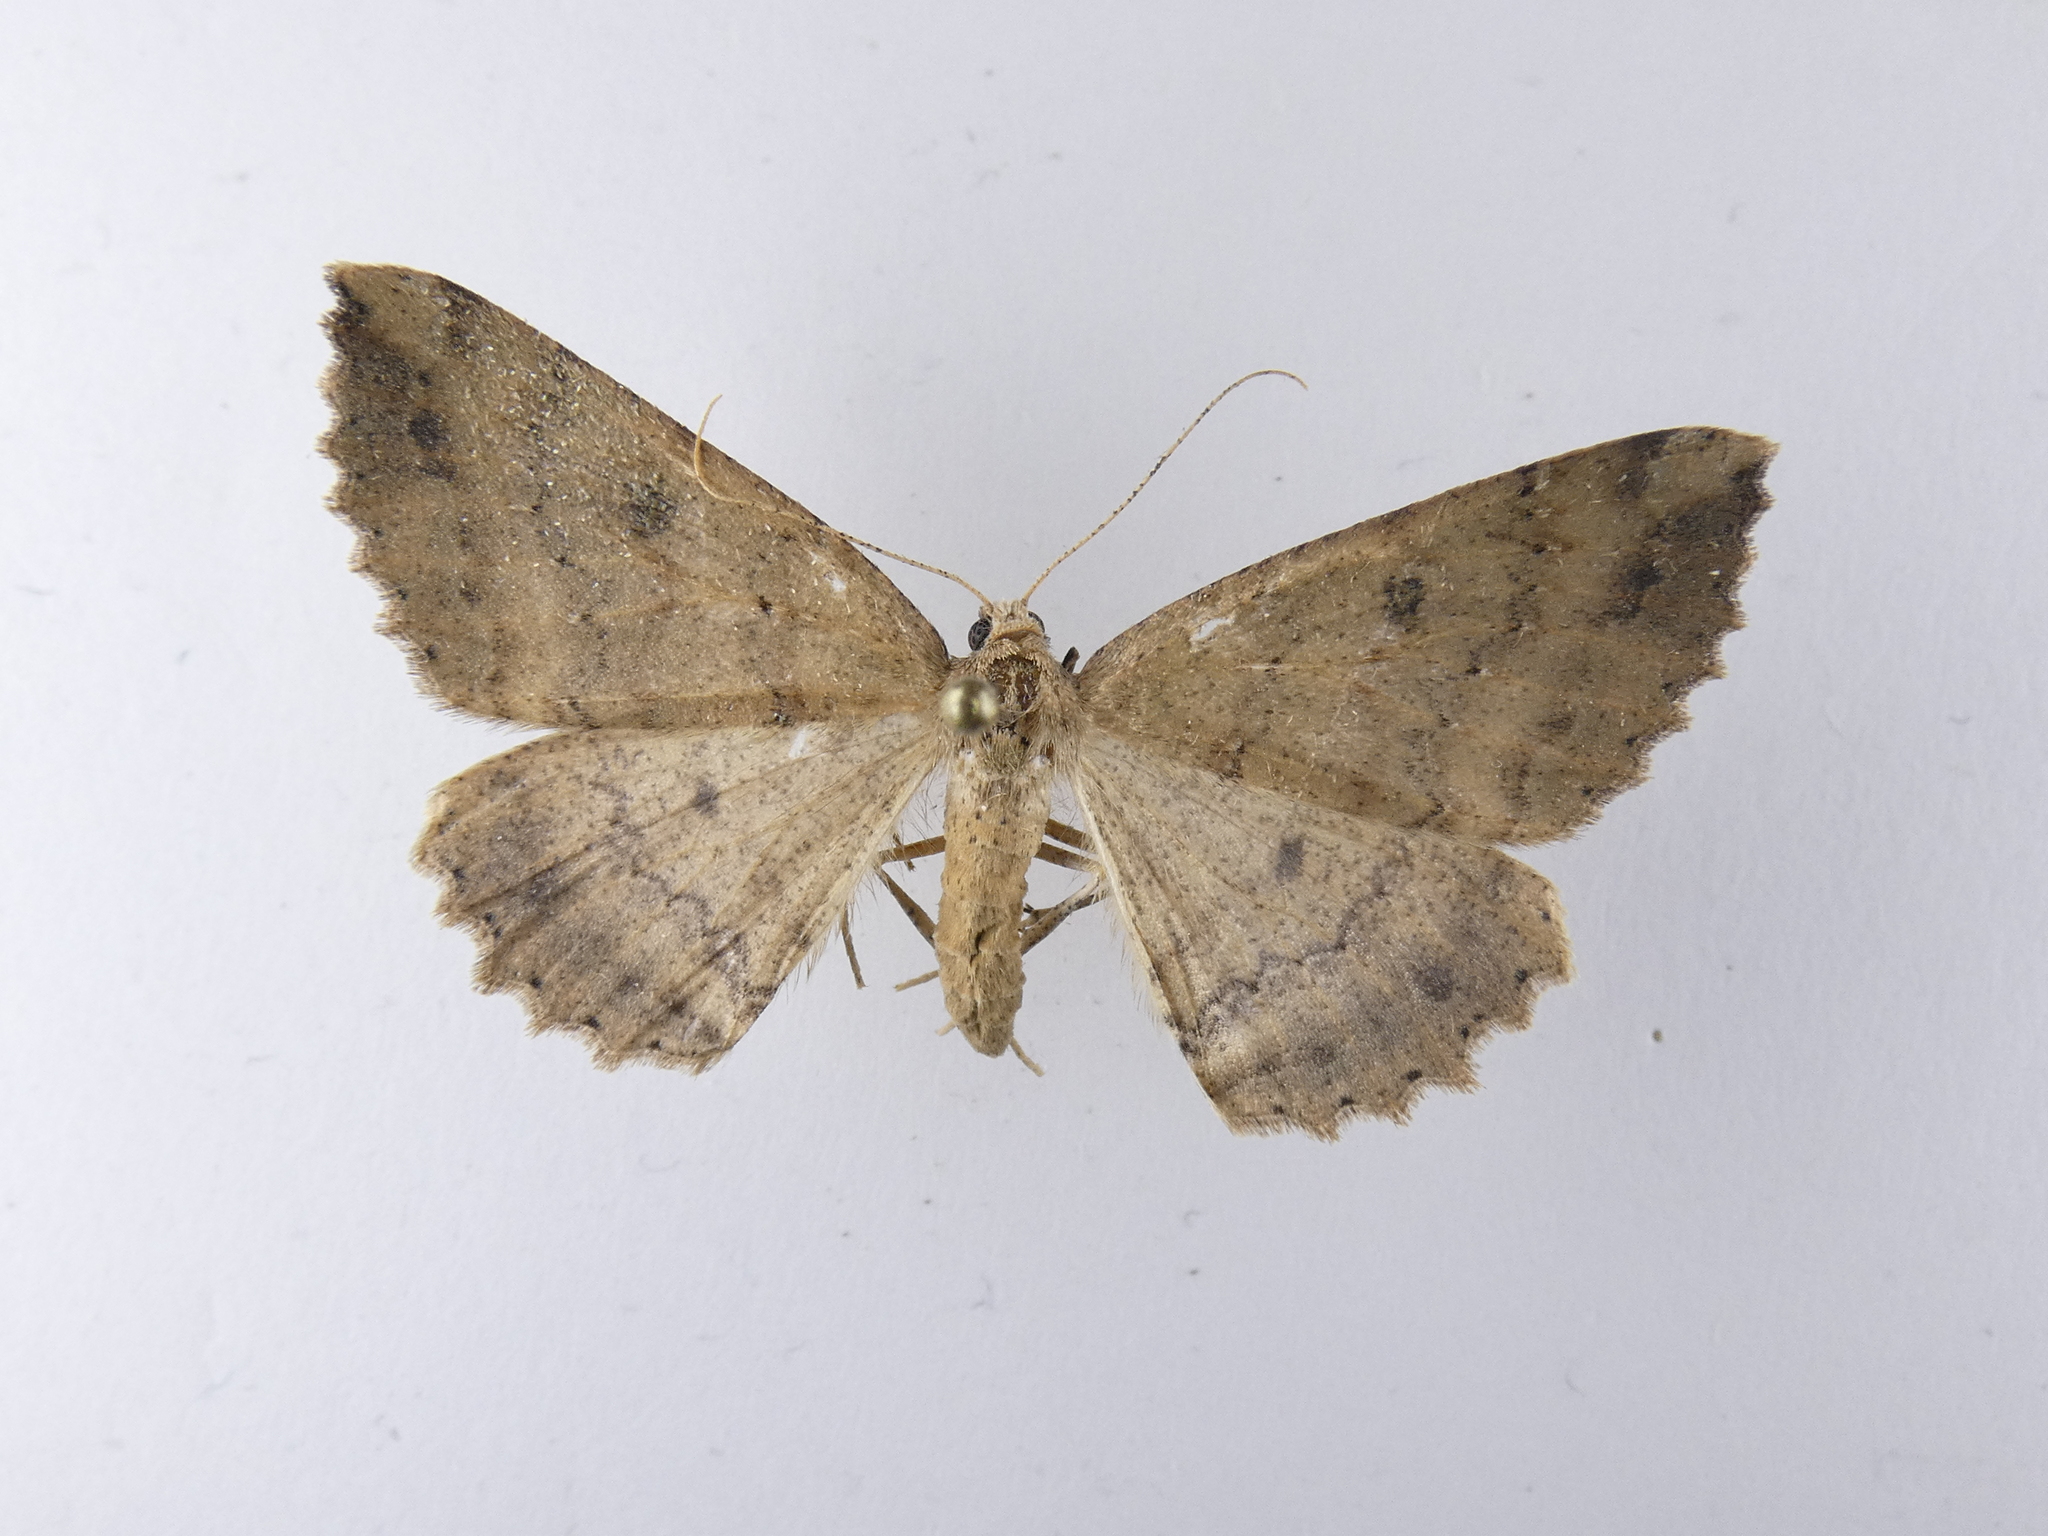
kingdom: Animalia
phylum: Arthropoda
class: Insecta
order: Lepidoptera
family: Geometridae
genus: Cleora
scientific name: Cleora scriptaria
